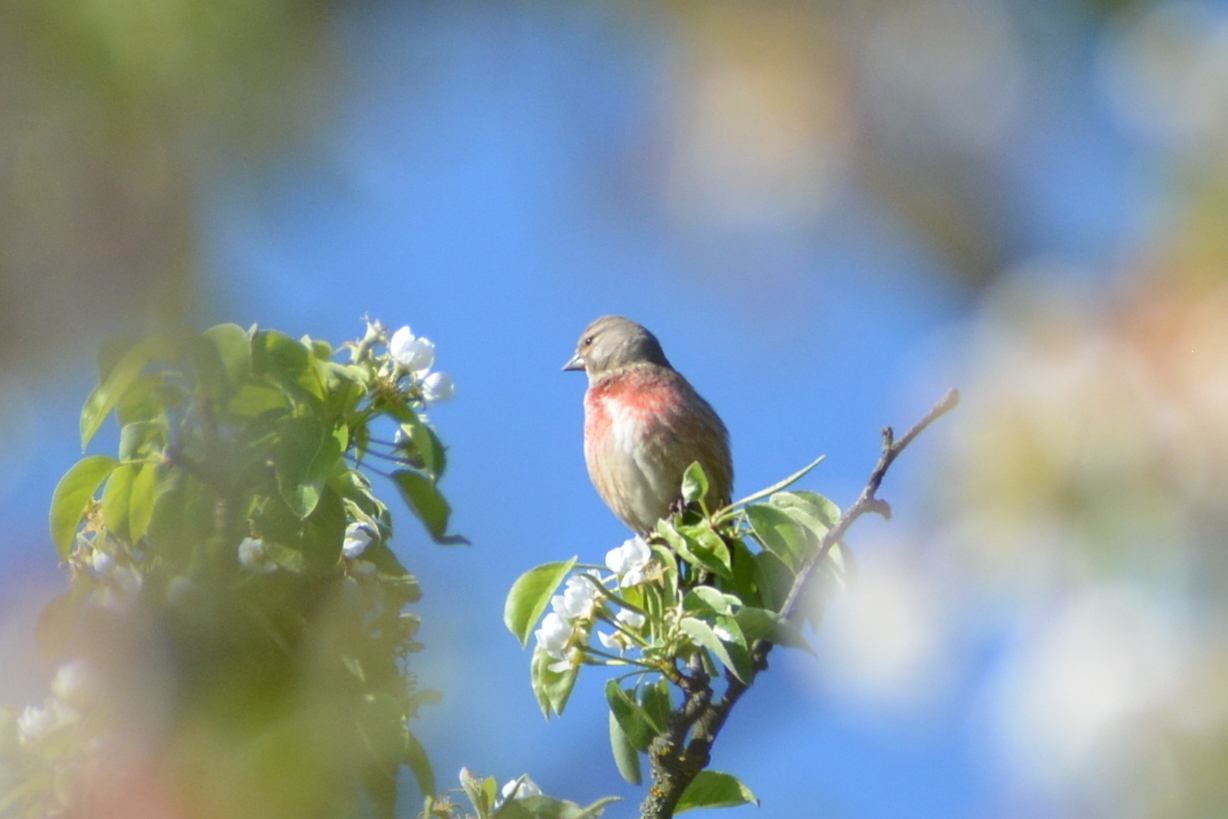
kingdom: Animalia
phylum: Chordata
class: Aves
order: Passeriformes
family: Fringillidae
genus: Linaria
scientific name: Linaria cannabina
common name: Common linnet
